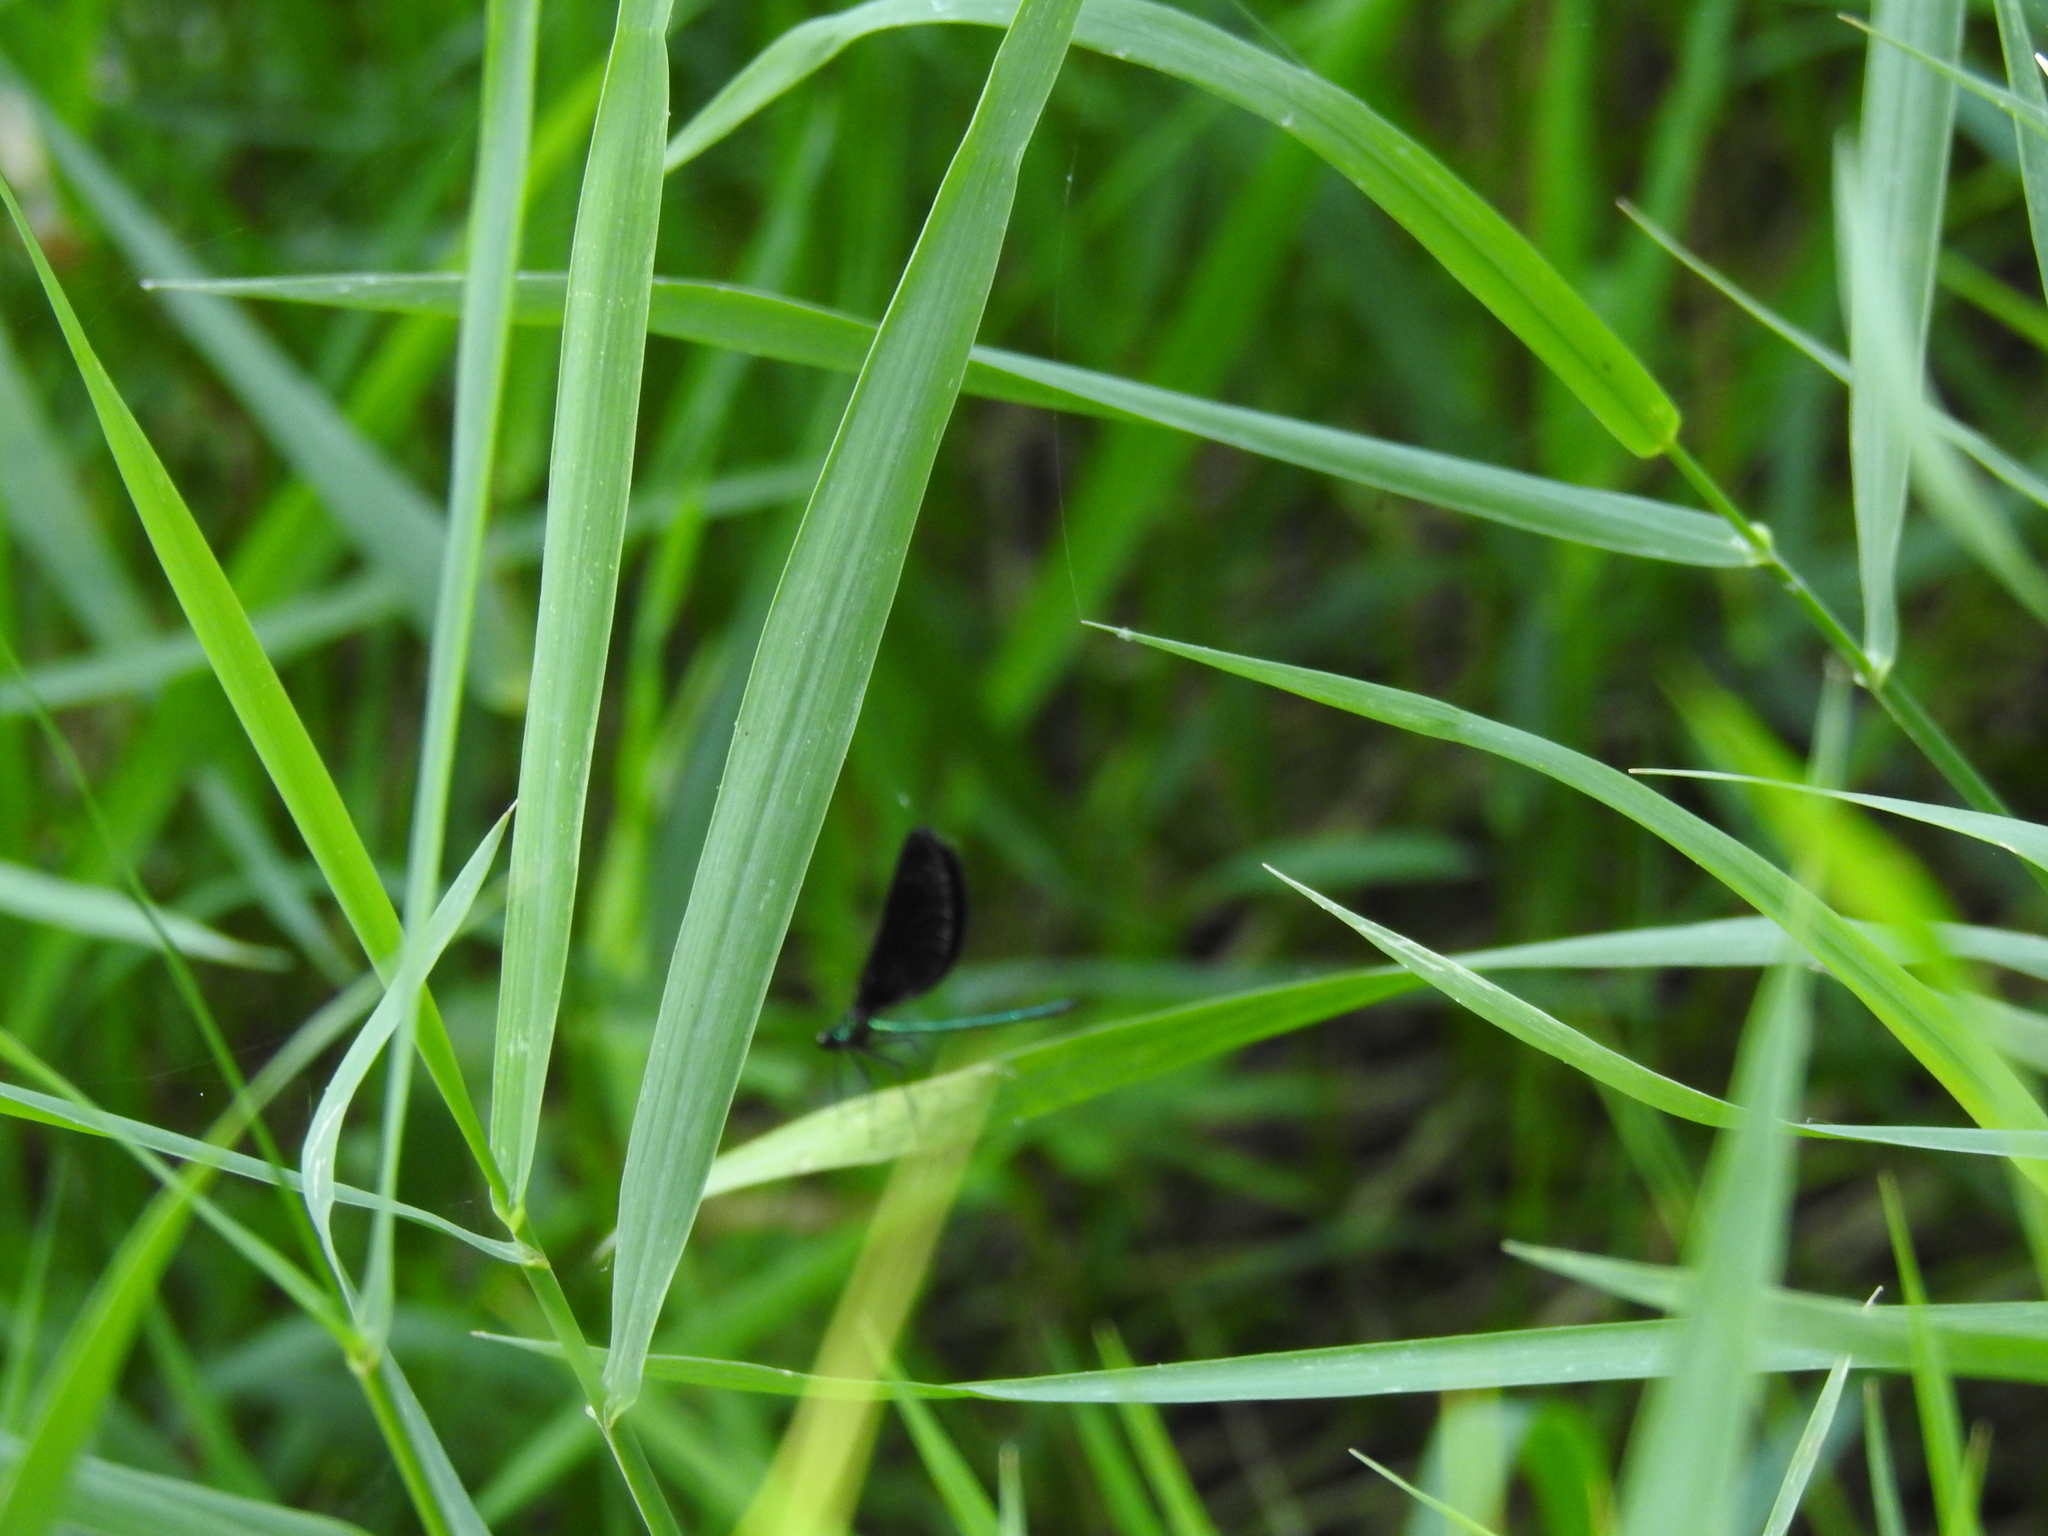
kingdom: Animalia
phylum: Arthropoda
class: Insecta
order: Odonata
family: Calopterygidae
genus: Calopteryx
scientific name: Calopteryx maculata
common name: Ebony jewelwing
